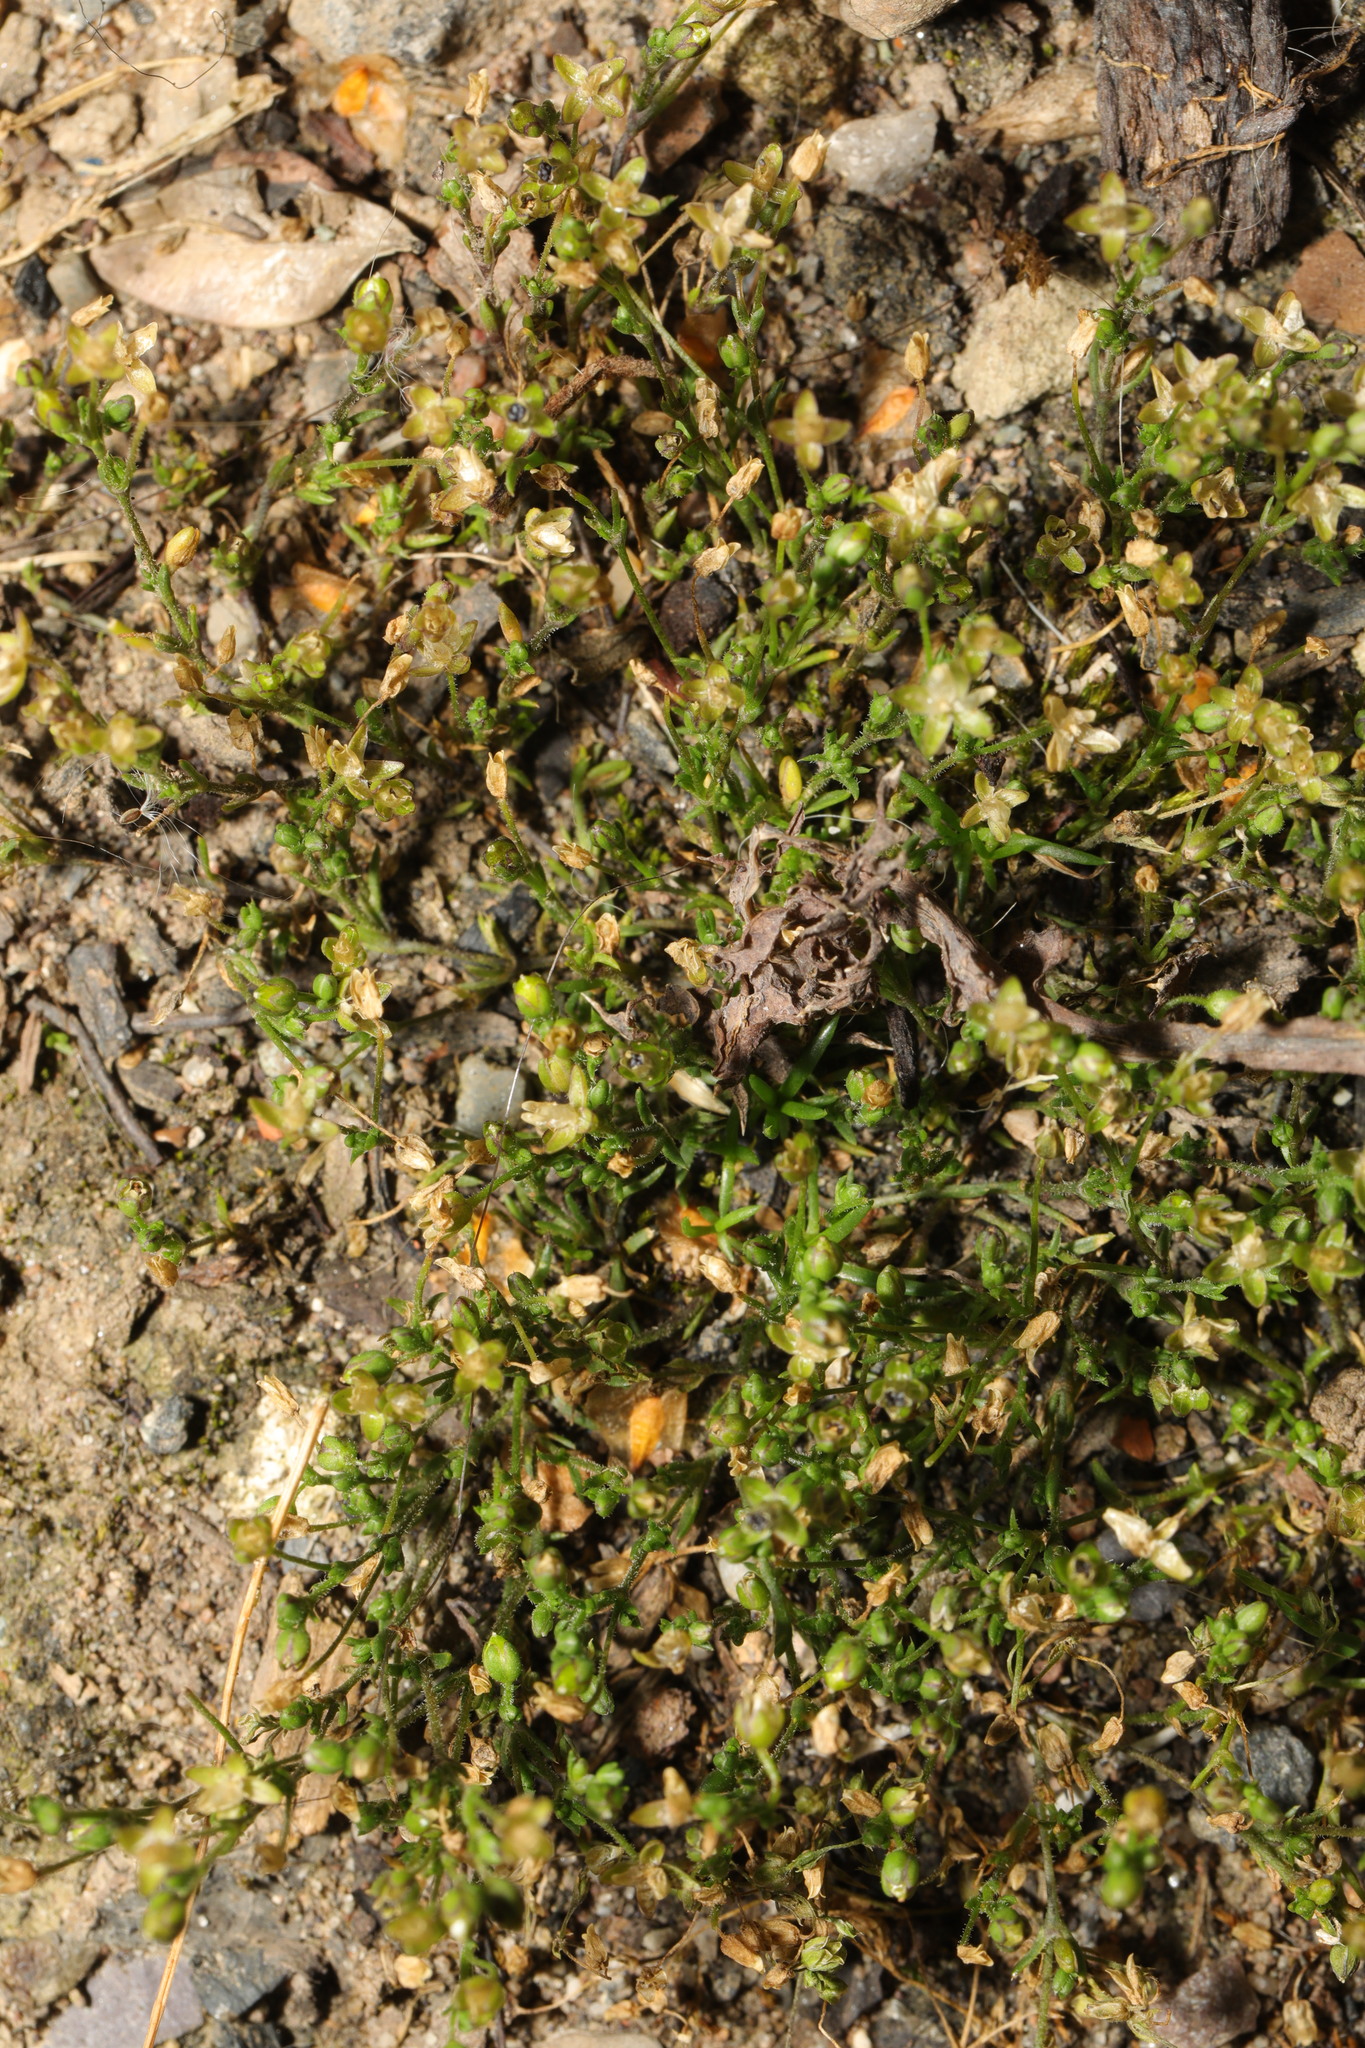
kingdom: Plantae
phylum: Tracheophyta
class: Magnoliopsida
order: Caryophyllales
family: Caryophyllaceae
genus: Sagina
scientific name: Sagina procumbens
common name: Procumbent pearlwort
